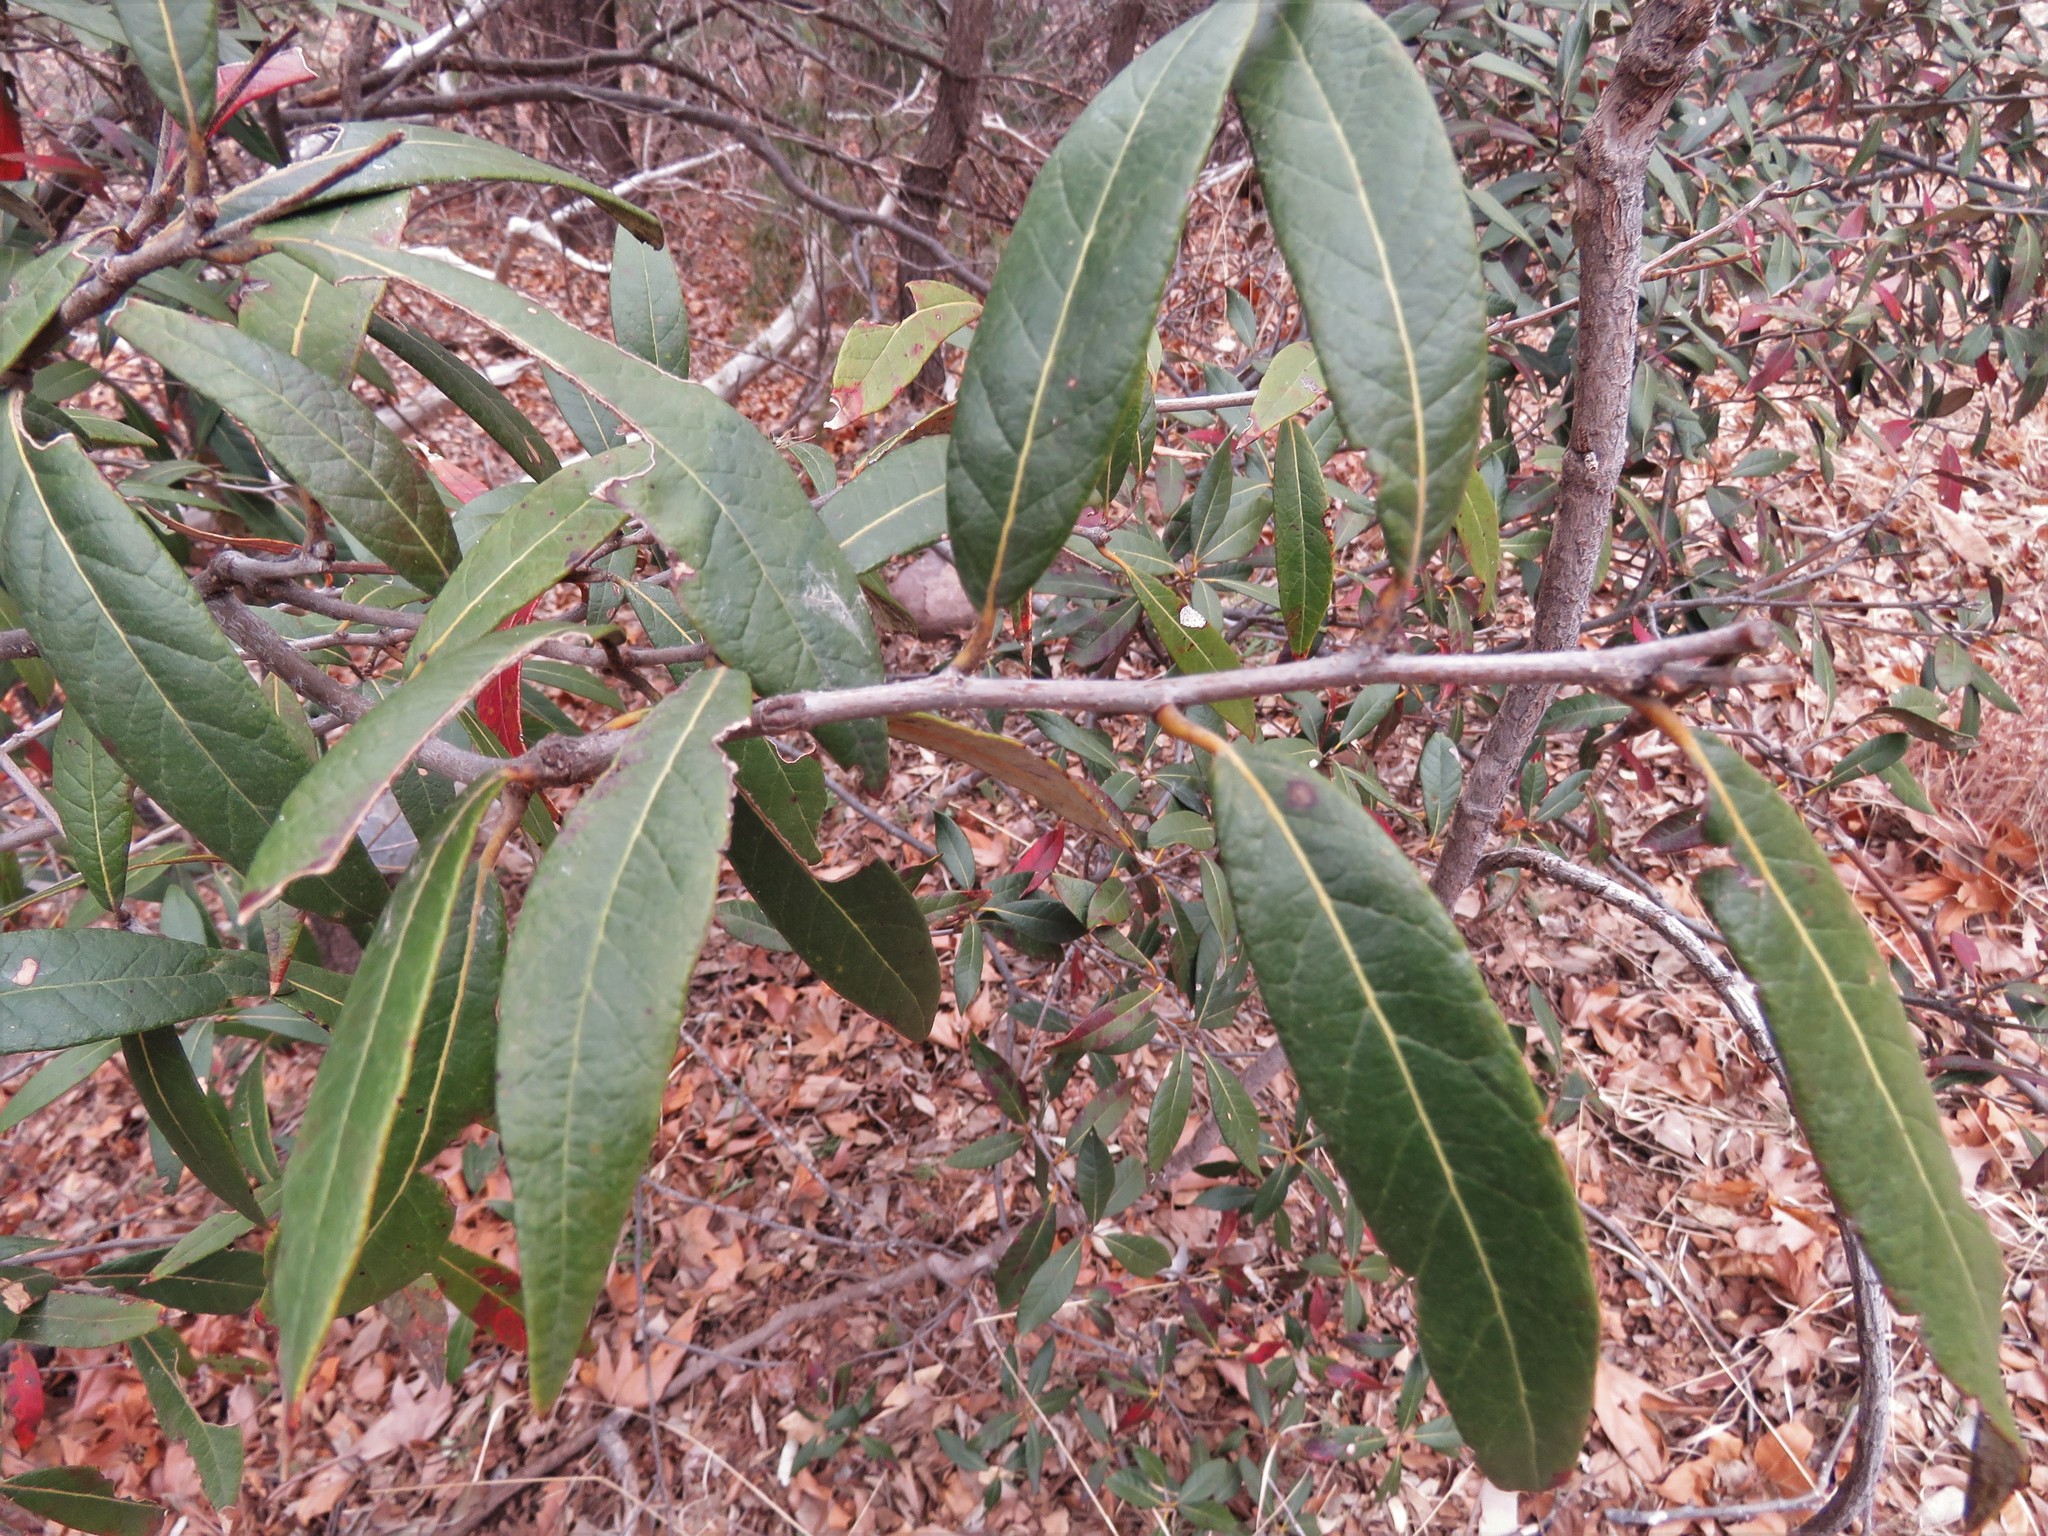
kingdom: Plantae
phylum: Tracheophyta
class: Magnoliopsida
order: Fagales
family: Fagaceae
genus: Quercus
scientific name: Quercus hypoleucoides
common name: Silverleaf oak
